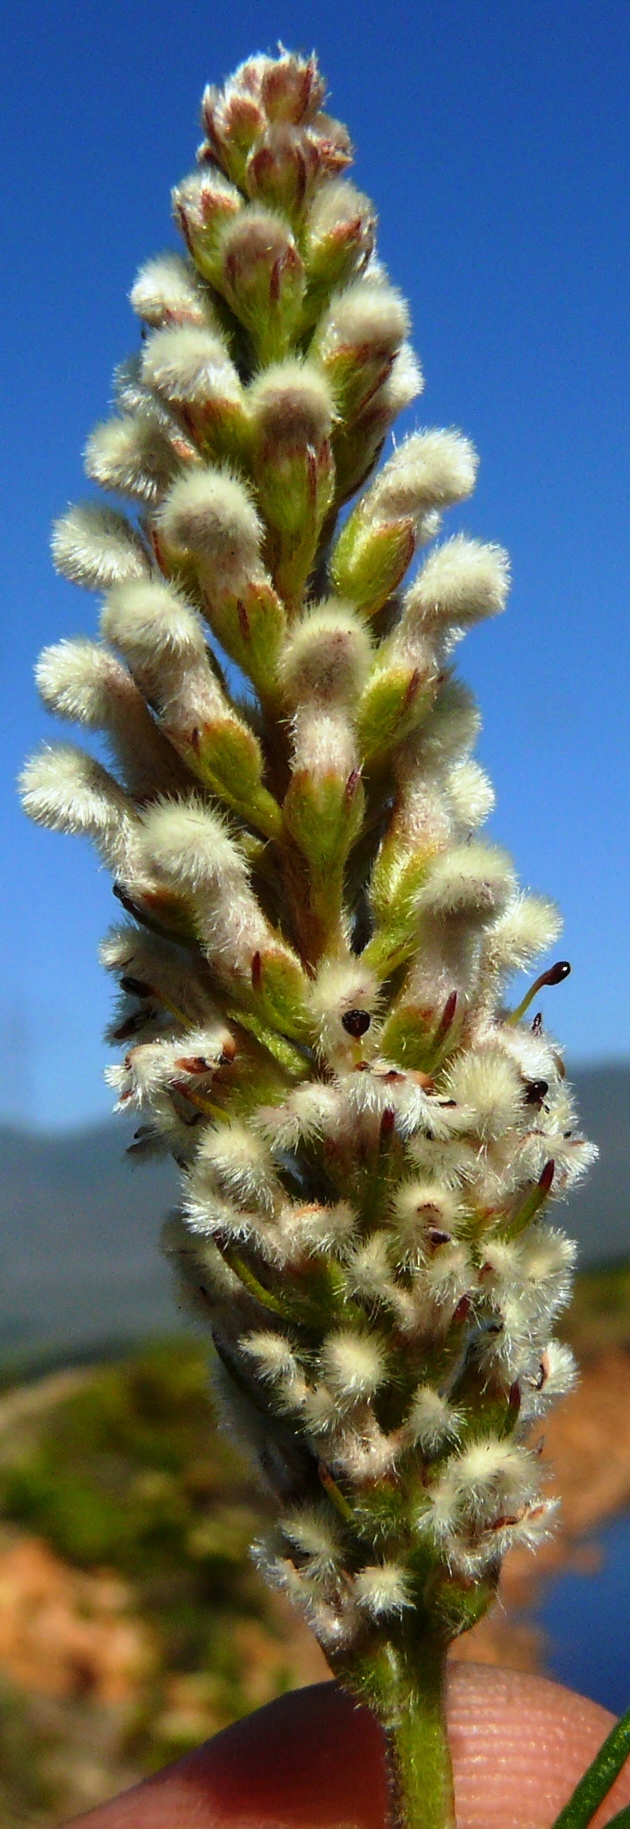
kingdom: Plantae
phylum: Tracheophyta
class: Magnoliopsida
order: Proteales
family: Proteaceae
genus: Spatalla
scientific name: Spatalla curvifolia
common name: White-stalked spoon
